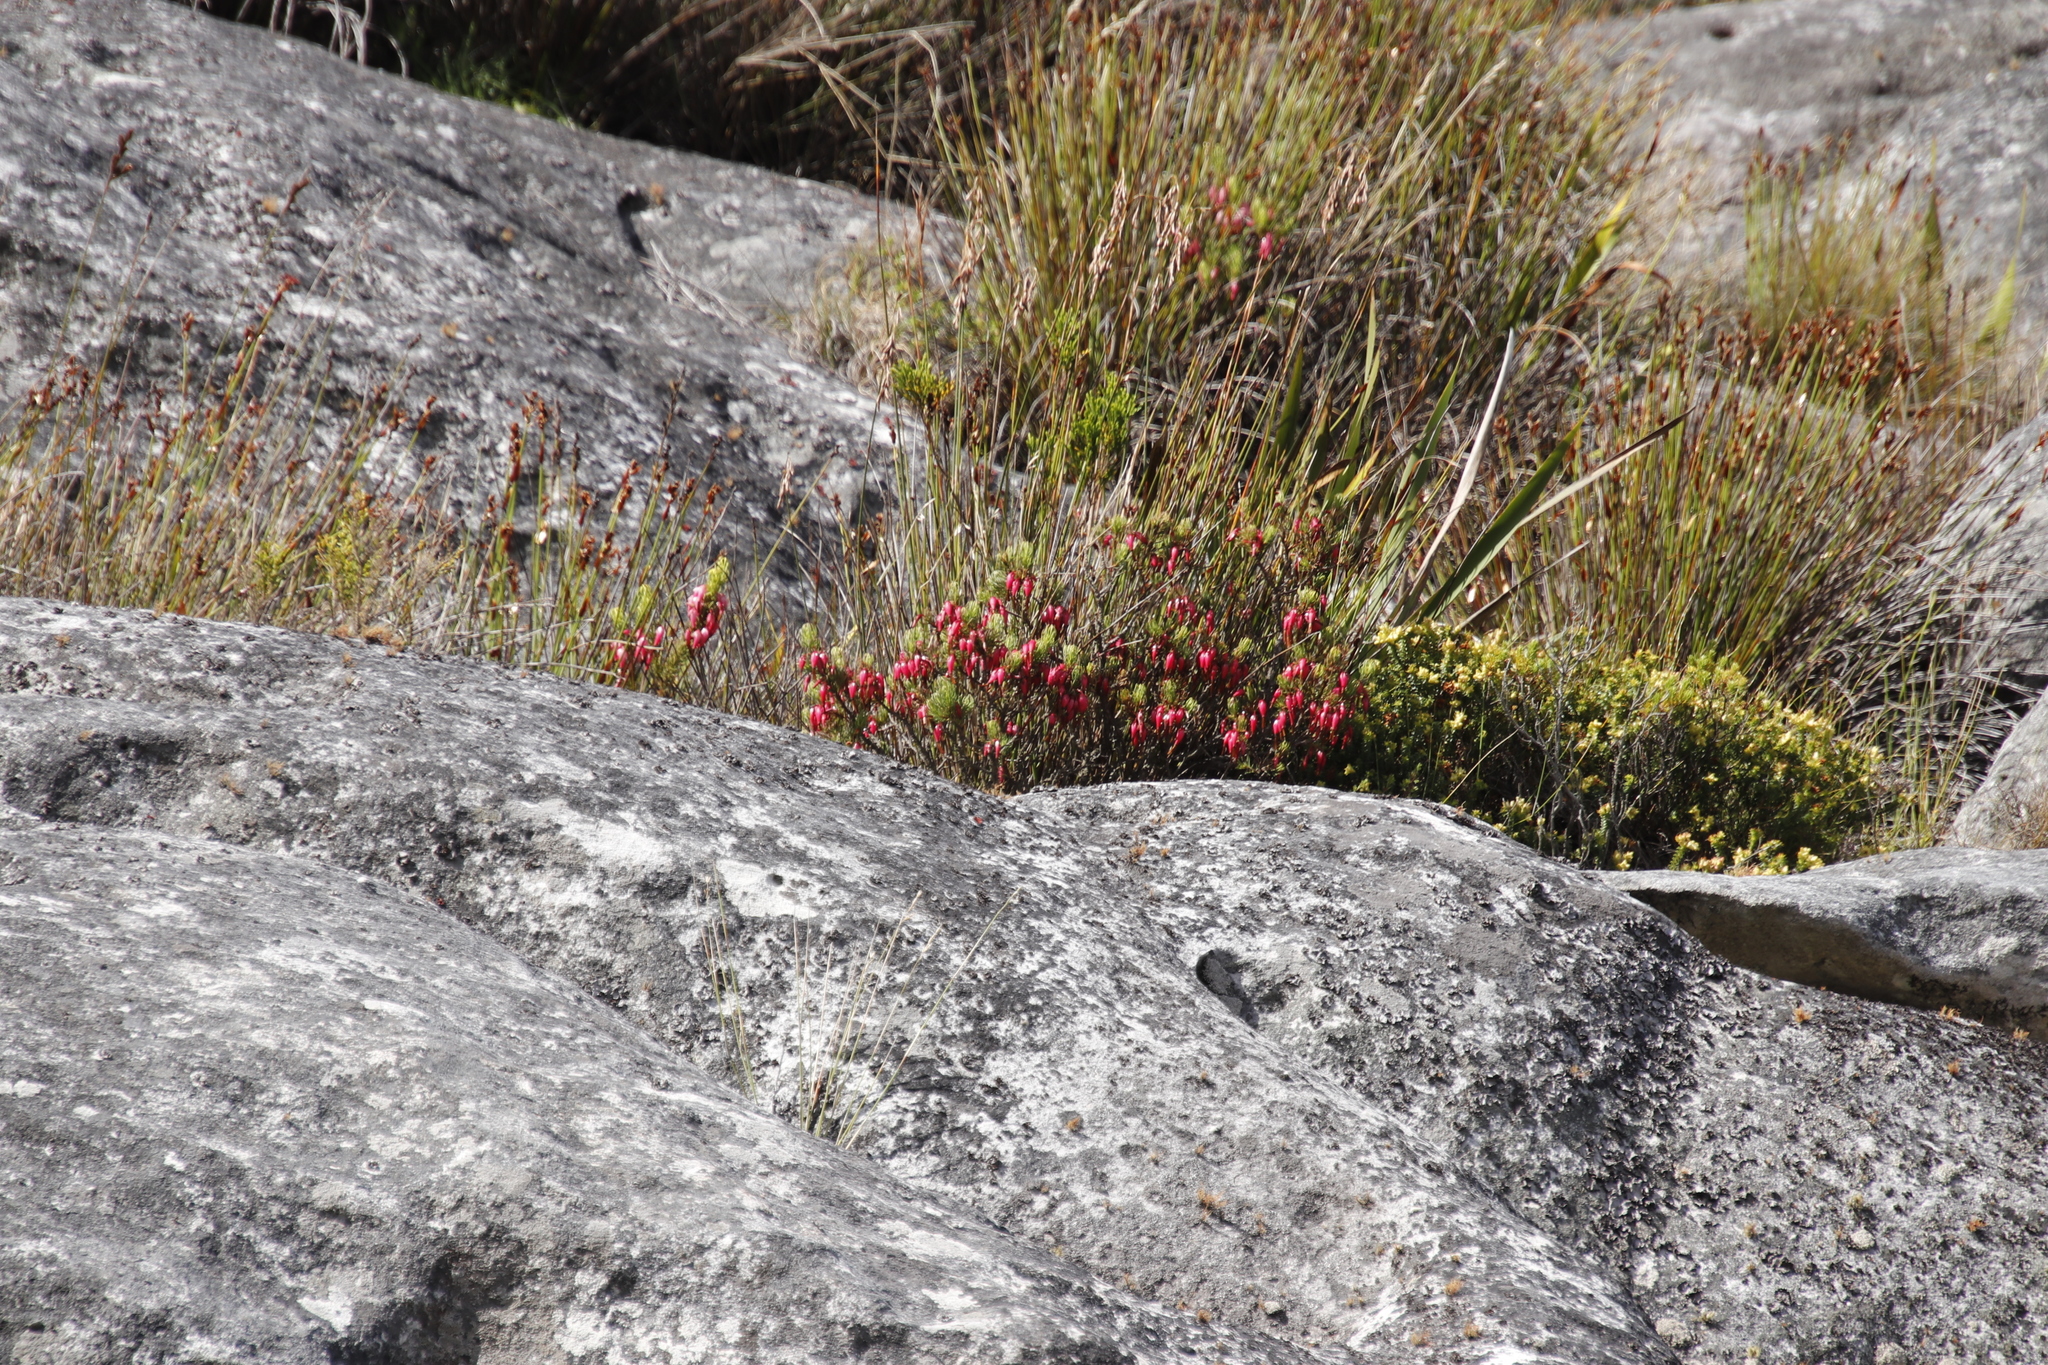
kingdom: Plantae
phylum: Tracheophyta
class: Magnoliopsida
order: Ericales
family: Ericaceae
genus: Erica
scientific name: Erica plukenetii
